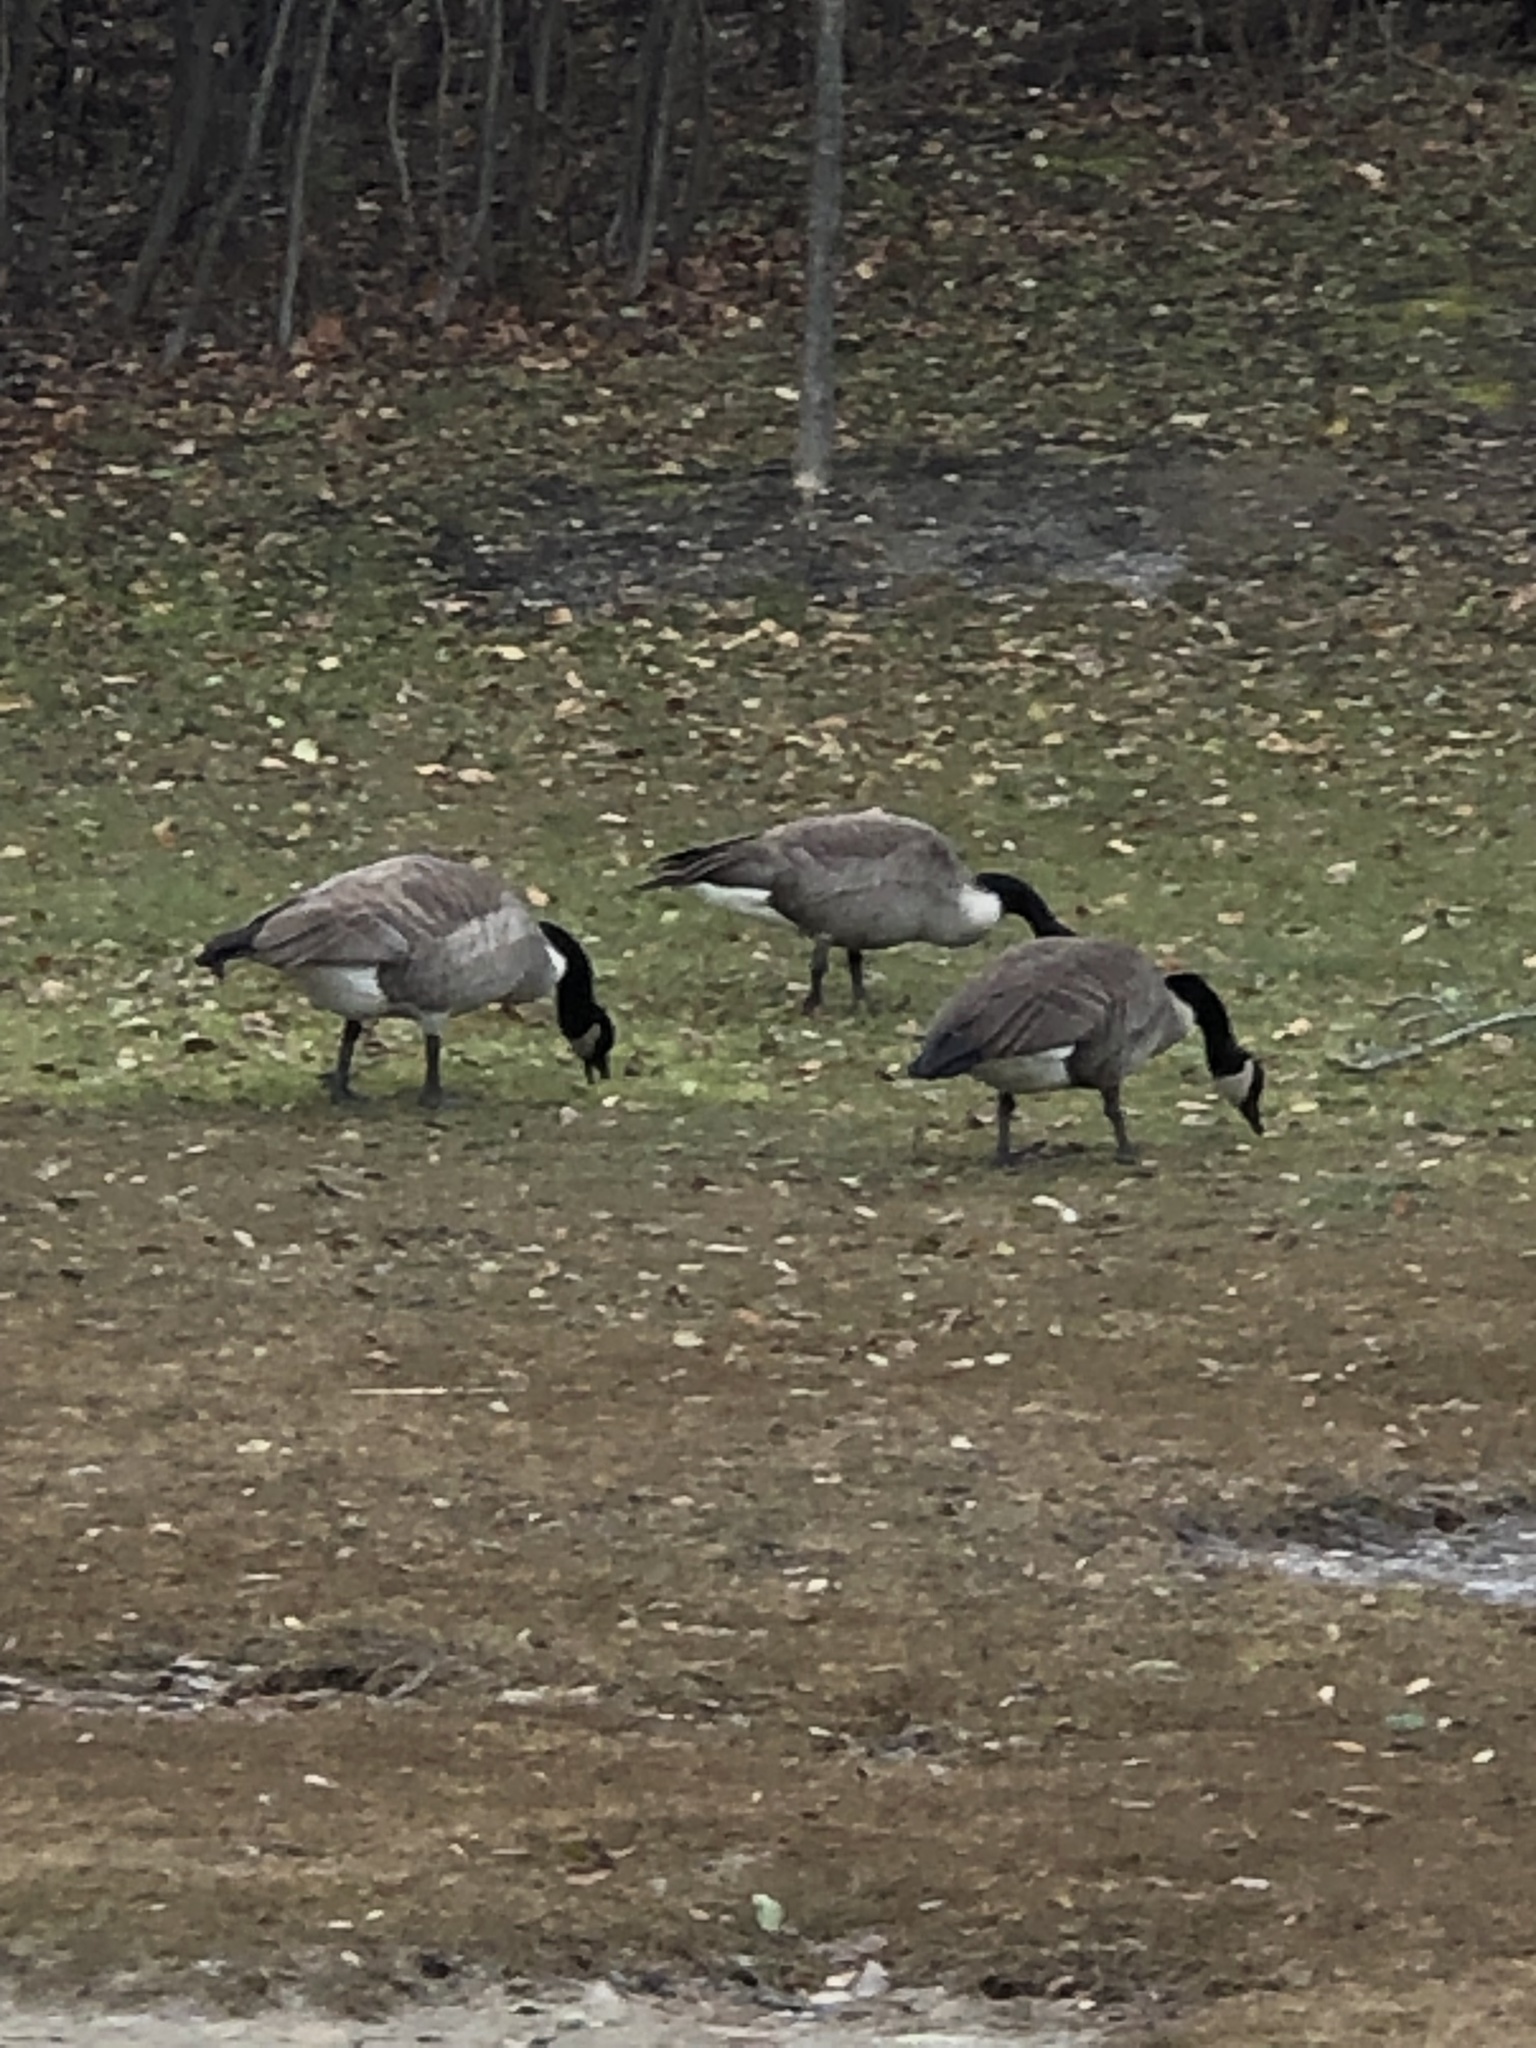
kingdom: Animalia
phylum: Chordata
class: Aves
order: Anseriformes
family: Anatidae
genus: Branta
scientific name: Branta canadensis
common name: Canada goose
